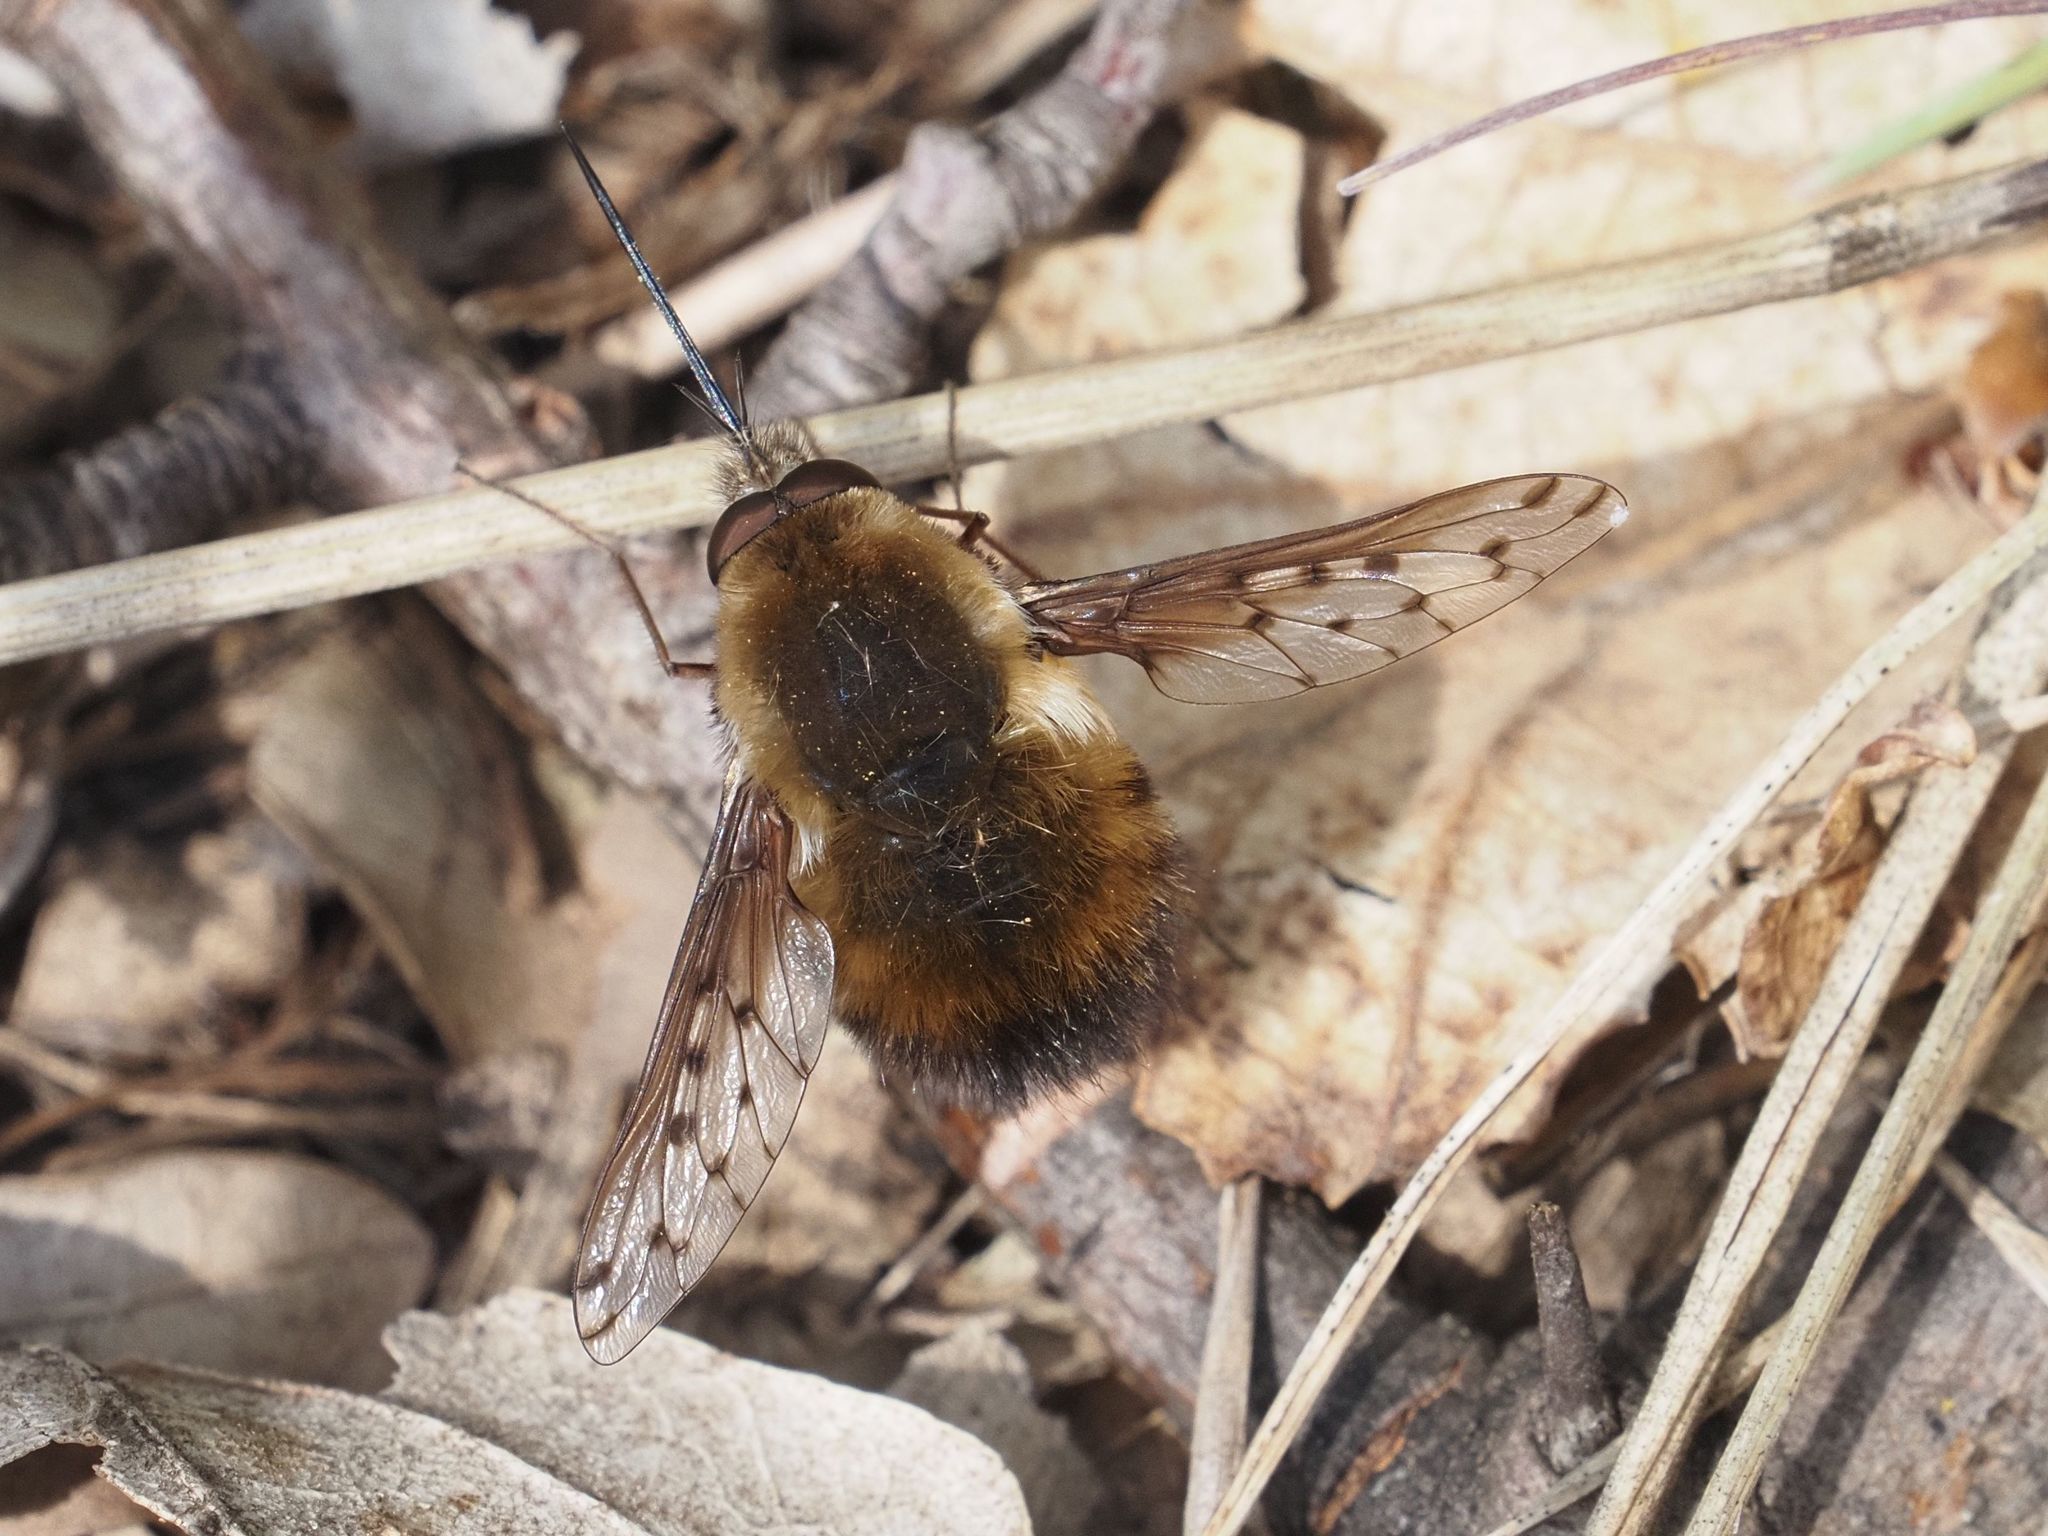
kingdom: Animalia
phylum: Arthropoda
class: Insecta
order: Diptera
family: Bombyliidae
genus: Bombylius
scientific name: Bombylius discolor
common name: Dotted bee-fly
